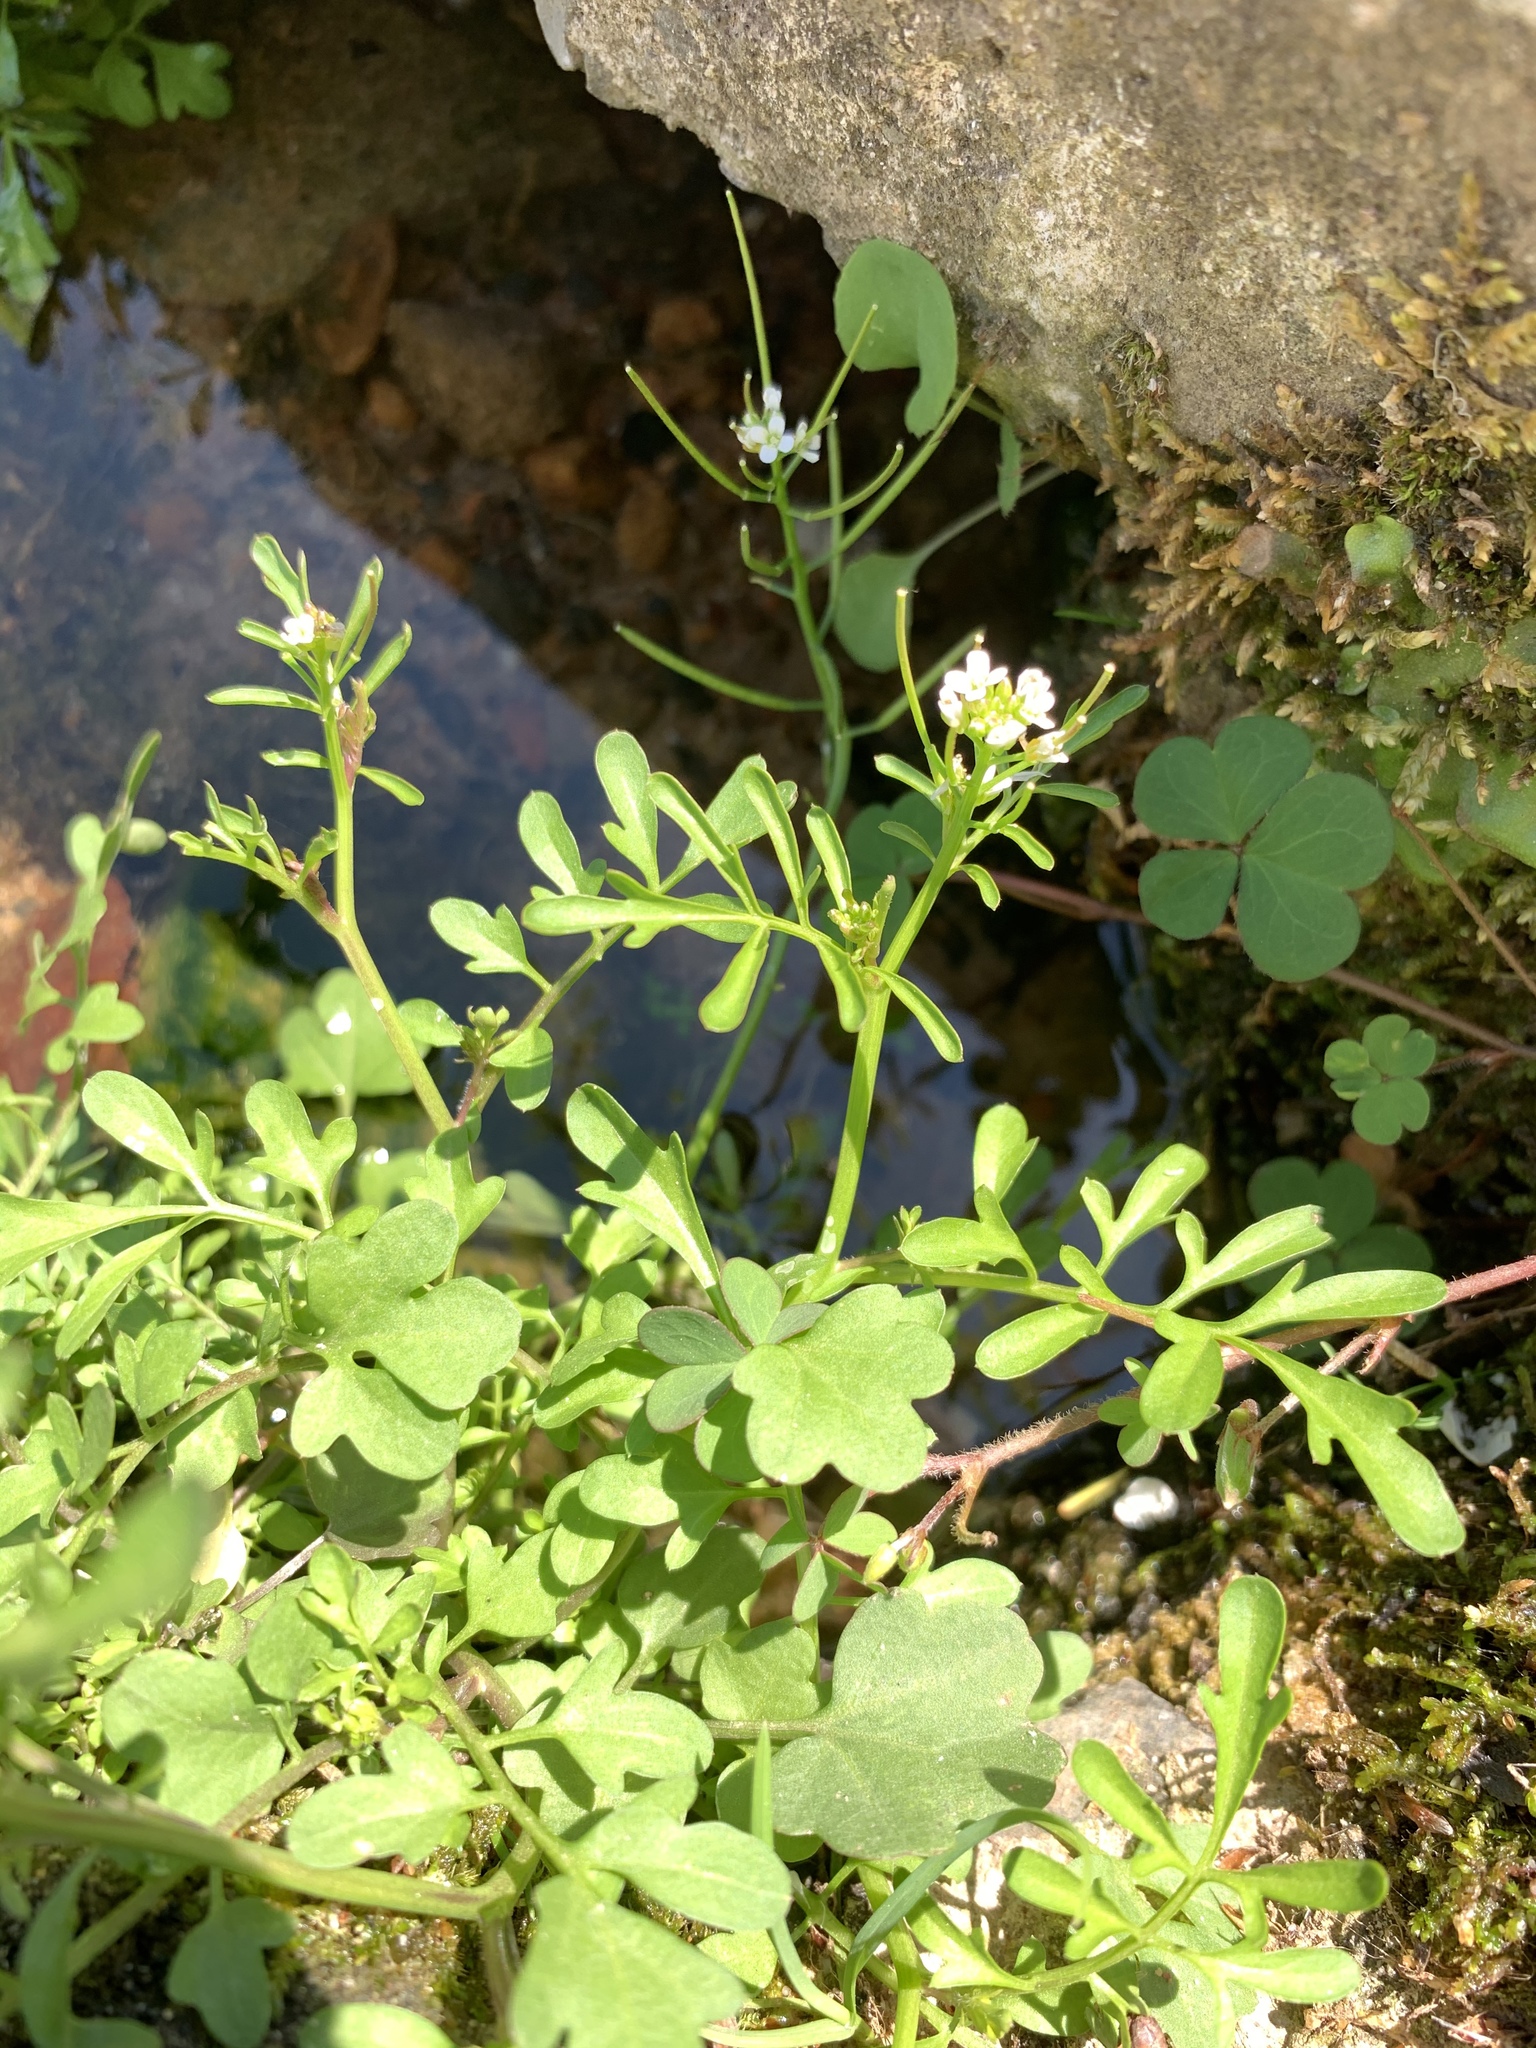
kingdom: Plantae
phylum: Tracheophyta
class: Magnoliopsida
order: Brassicales
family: Brassicaceae
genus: Cardamine
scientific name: Cardamine occulta
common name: Asian wavy bittercress
